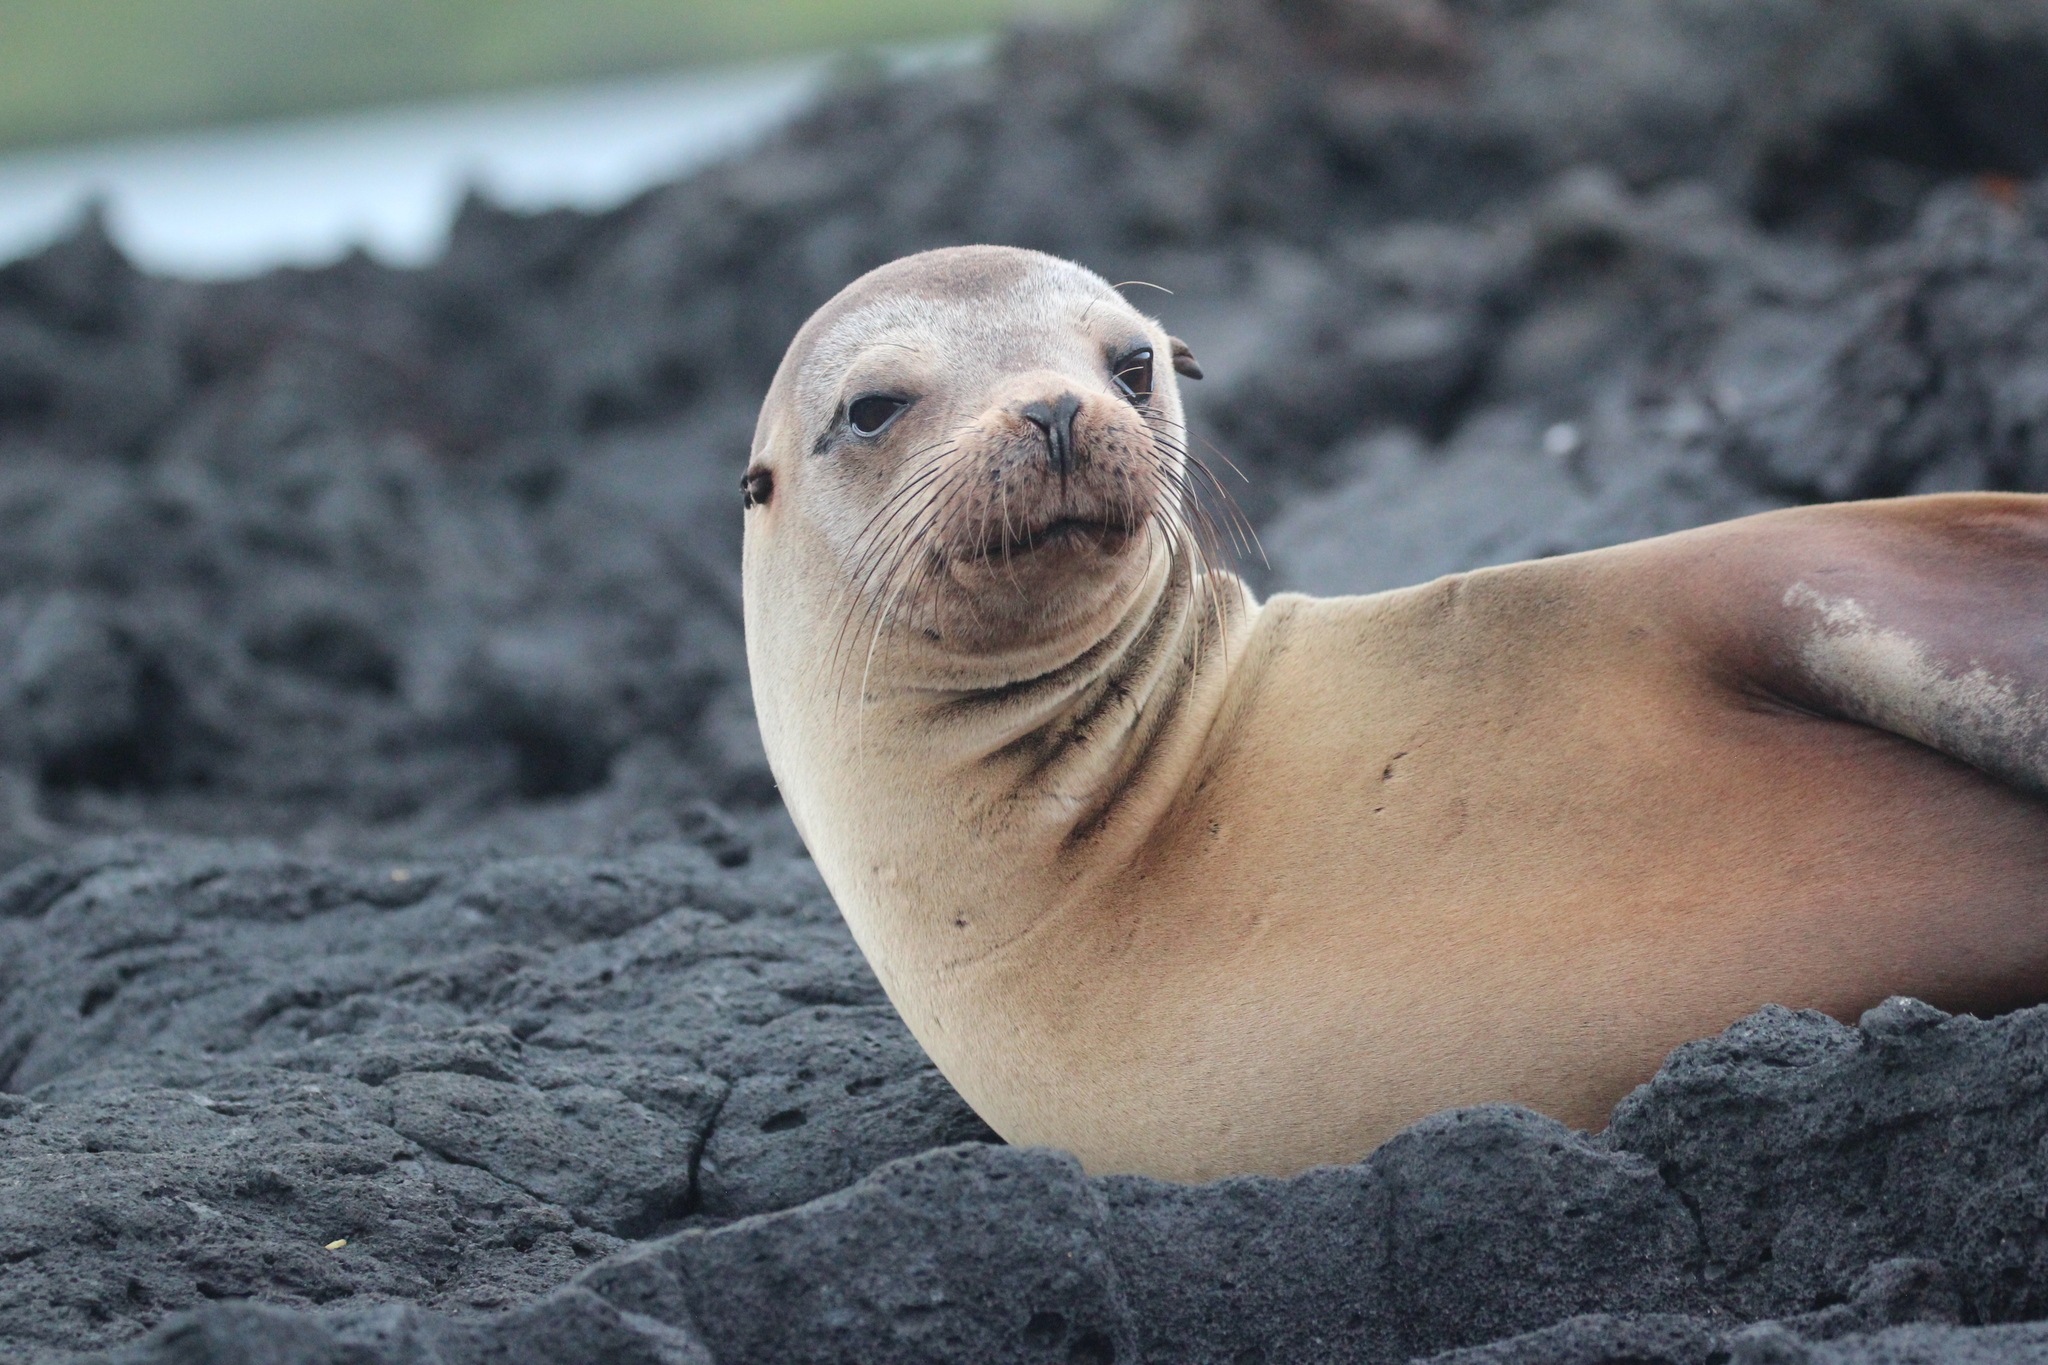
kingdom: Animalia
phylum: Chordata
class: Mammalia
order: Carnivora
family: Otariidae
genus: Zalophus
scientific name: Zalophus wollebaeki
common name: Galapagos sea lion
